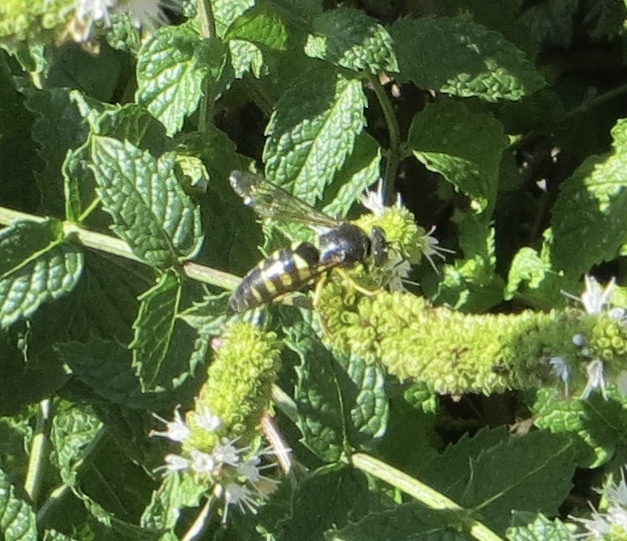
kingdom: Animalia
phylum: Arthropoda
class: Insecta
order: Hymenoptera
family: Crabronidae
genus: Bicyrtes
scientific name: Bicyrtes quadrifasciatus
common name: Four-banded stink bug hunter wasp
